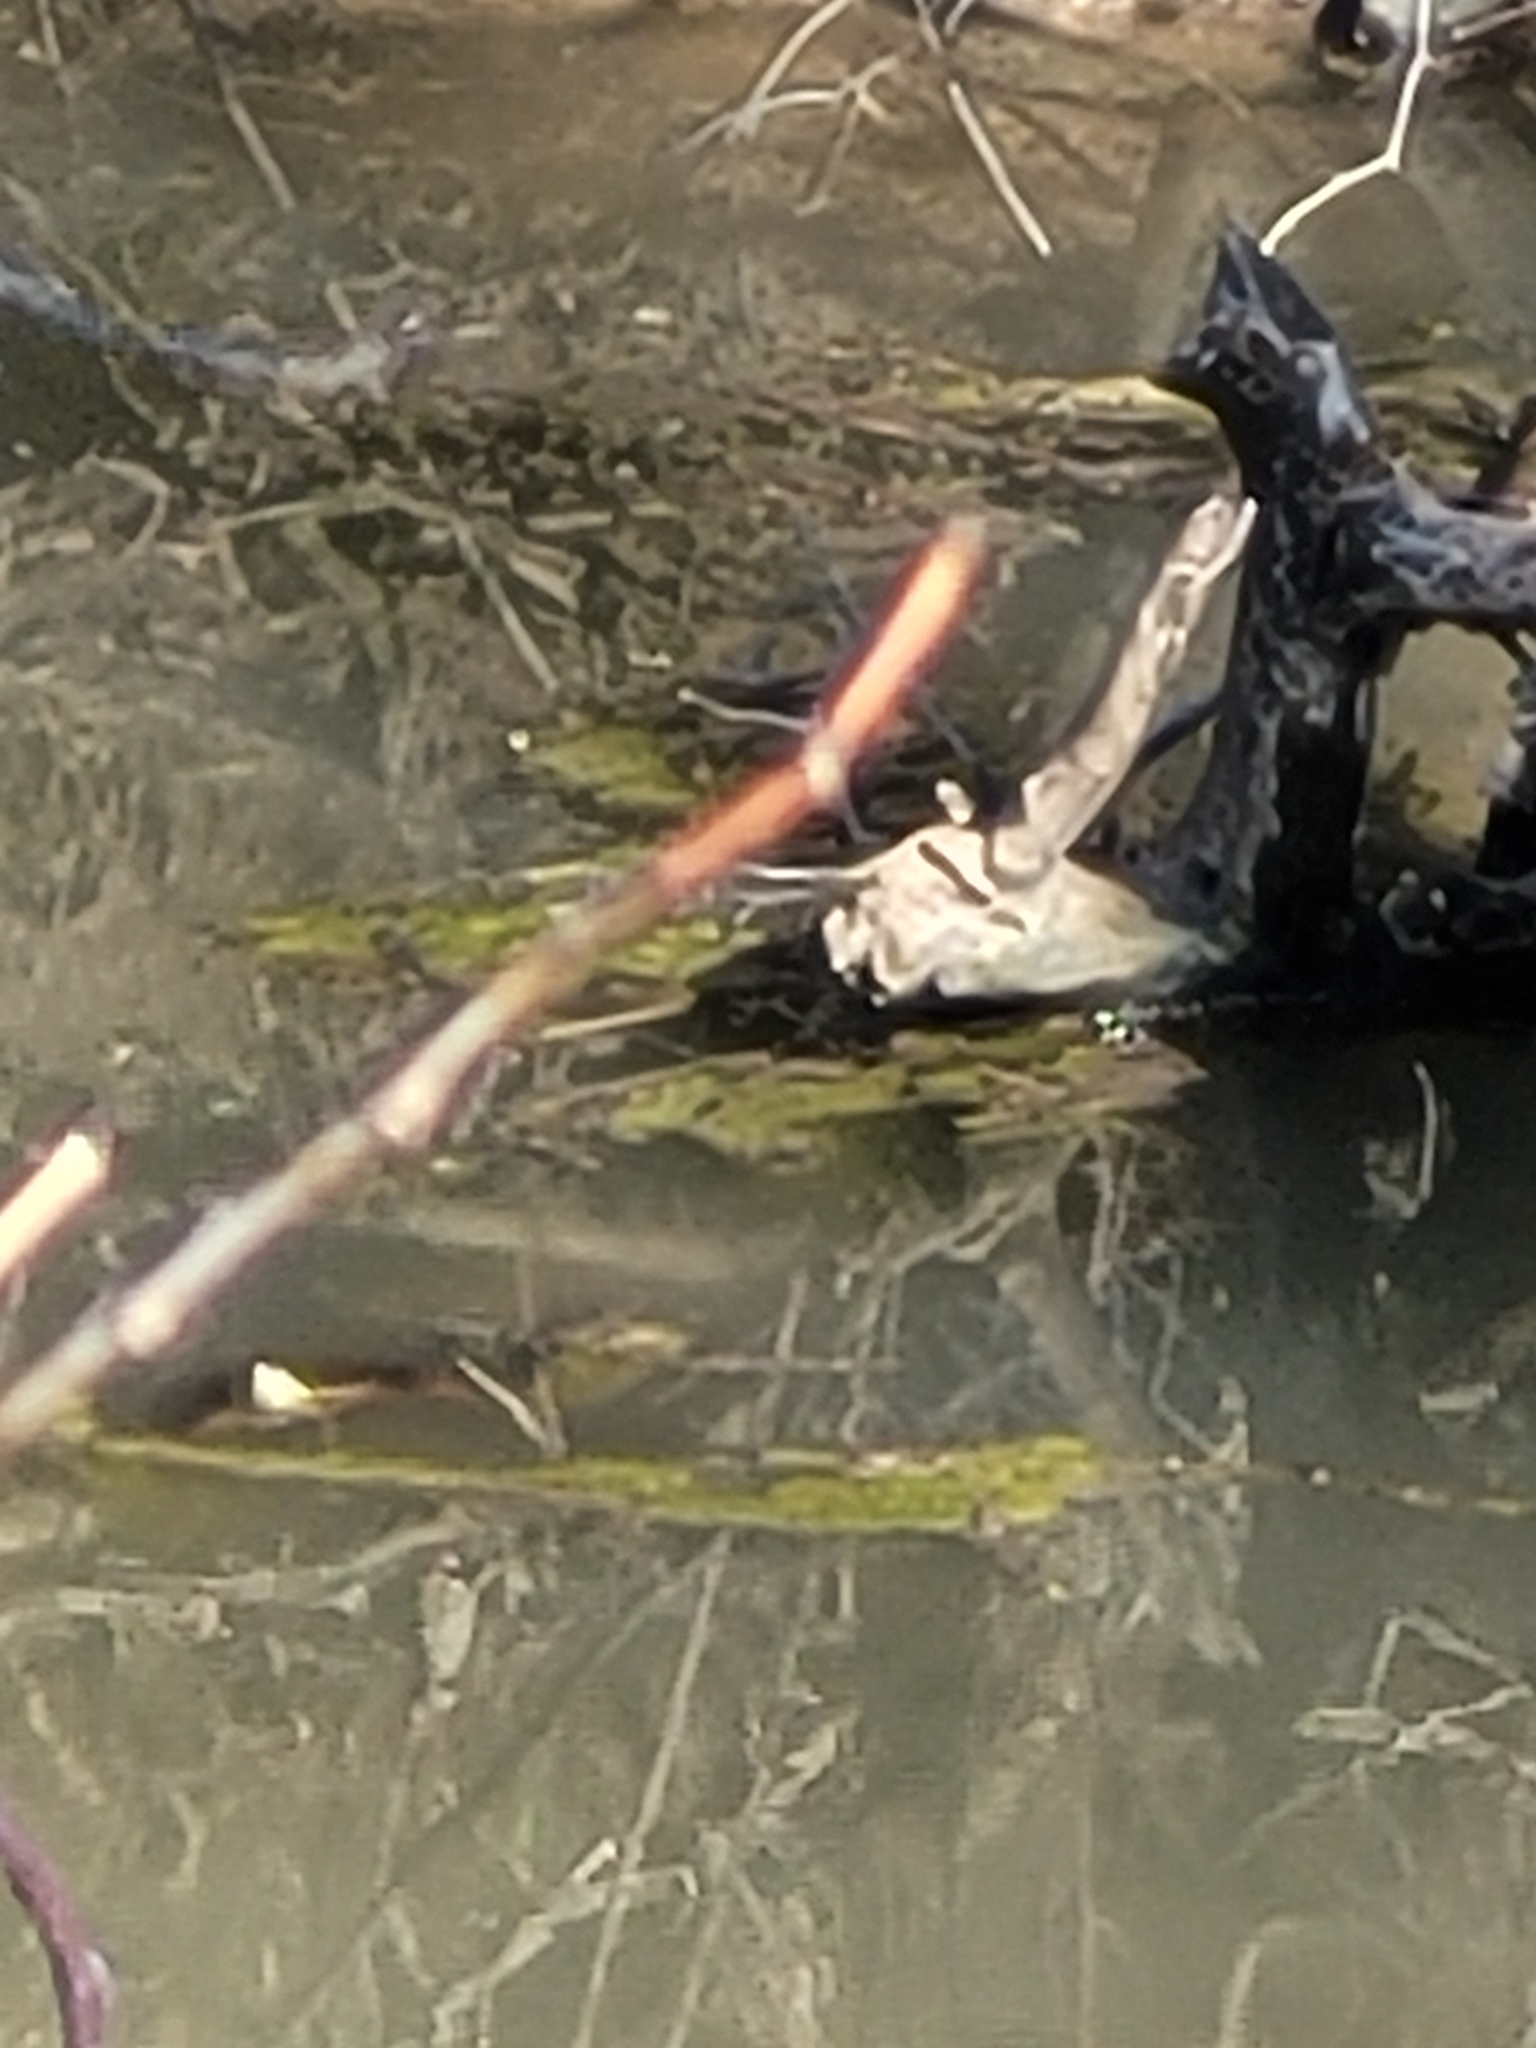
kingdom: Animalia
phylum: Chordata
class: Testudines
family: Emydidae
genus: Chrysemys
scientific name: Chrysemys picta
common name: Painted turtle
